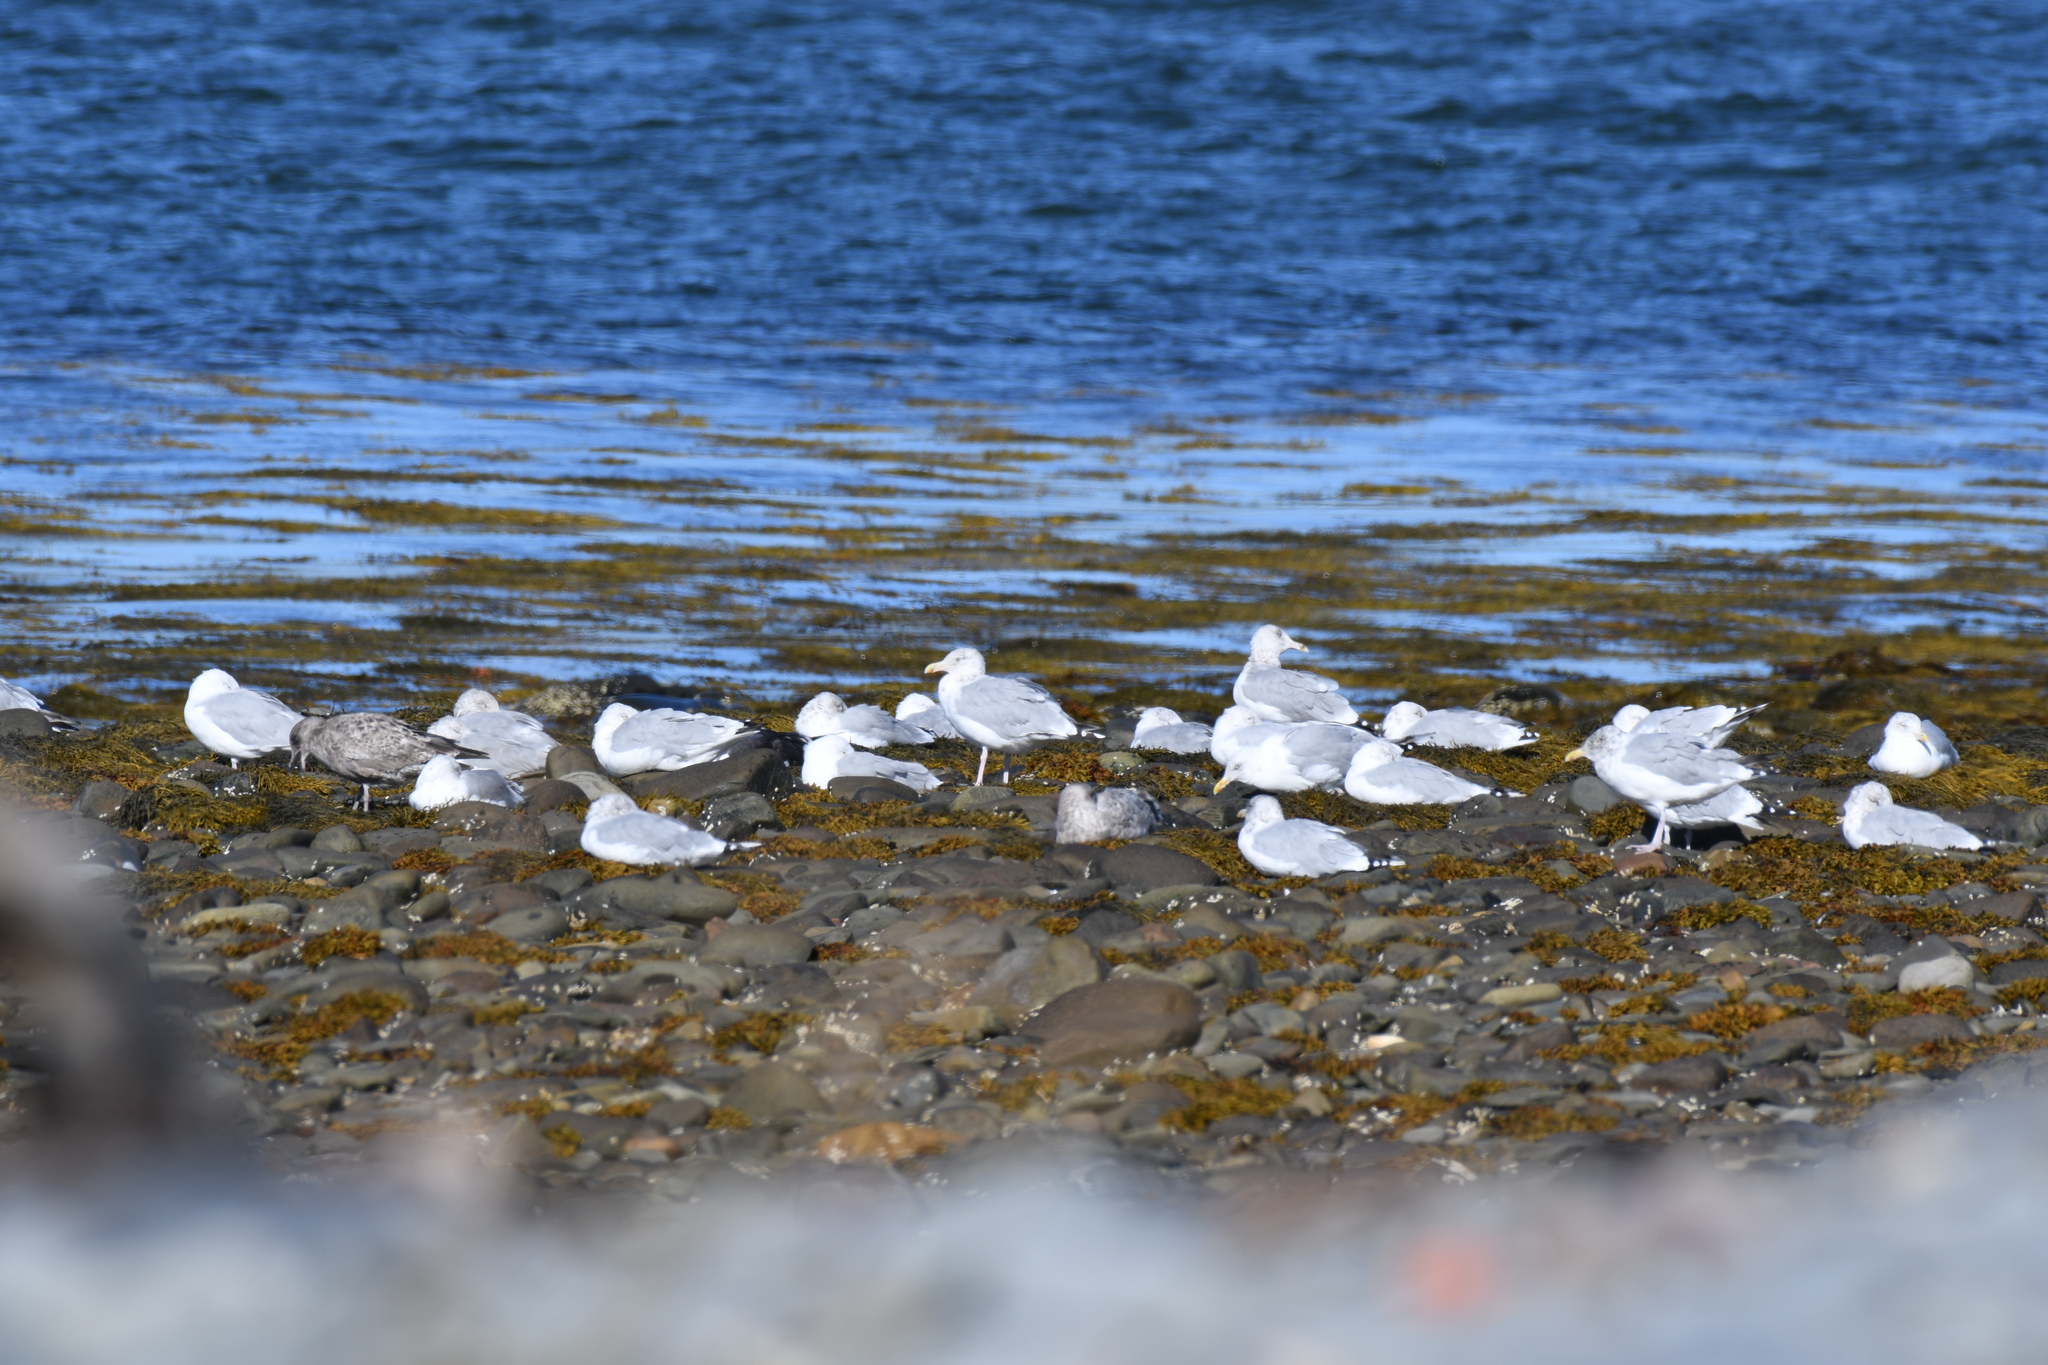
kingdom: Animalia
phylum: Chordata
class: Aves
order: Charadriiformes
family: Laridae
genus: Larus
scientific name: Larus argentatus
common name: Herring gull
